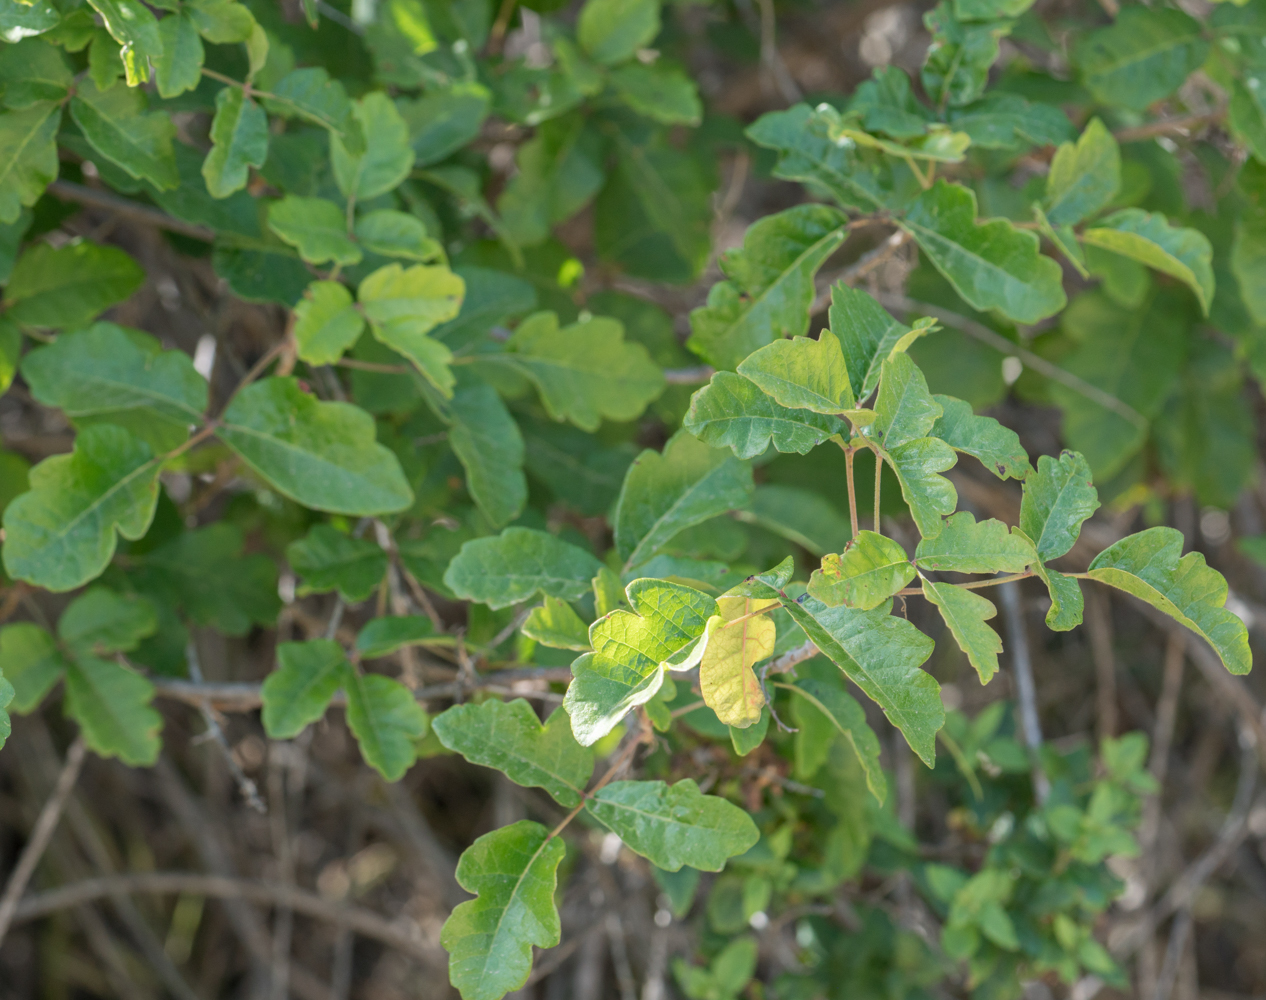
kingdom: Plantae
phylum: Tracheophyta
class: Magnoliopsida
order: Sapindales
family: Anacardiaceae
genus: Toxicodendron
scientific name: Toxicodendron diversilobum
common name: Pacific poison-oak
